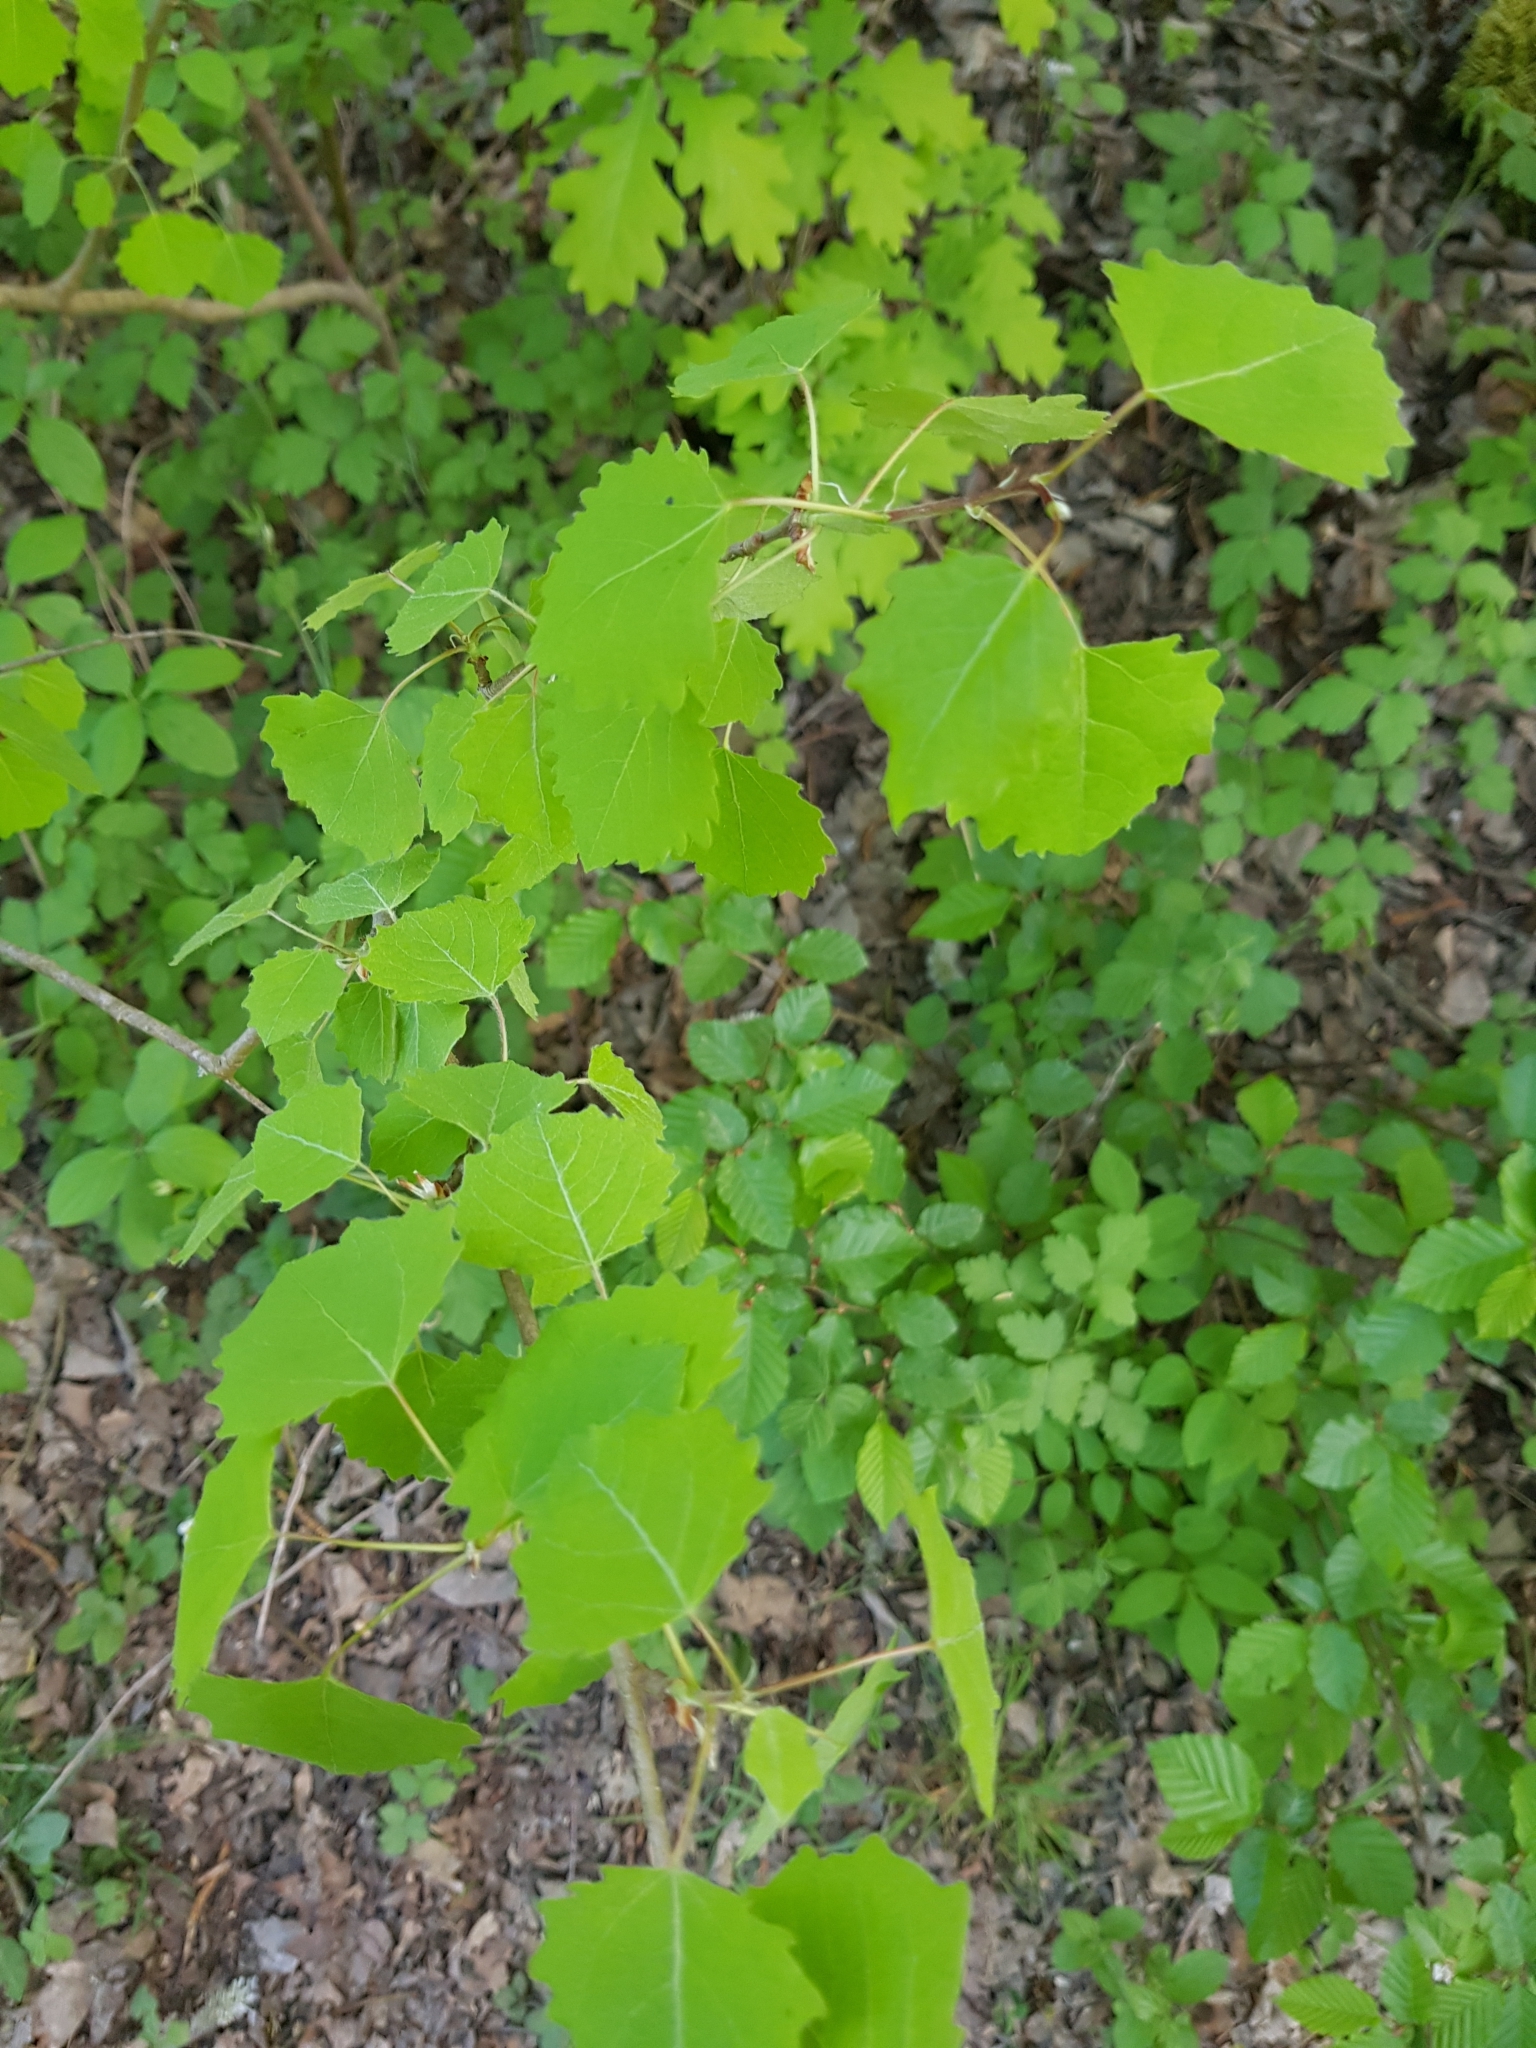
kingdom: Plantae
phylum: Tracheophyta
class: Magnoliopsida
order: Malpighiales
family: Salicaceae
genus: Populus
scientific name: Populus tremula
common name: European aspen
